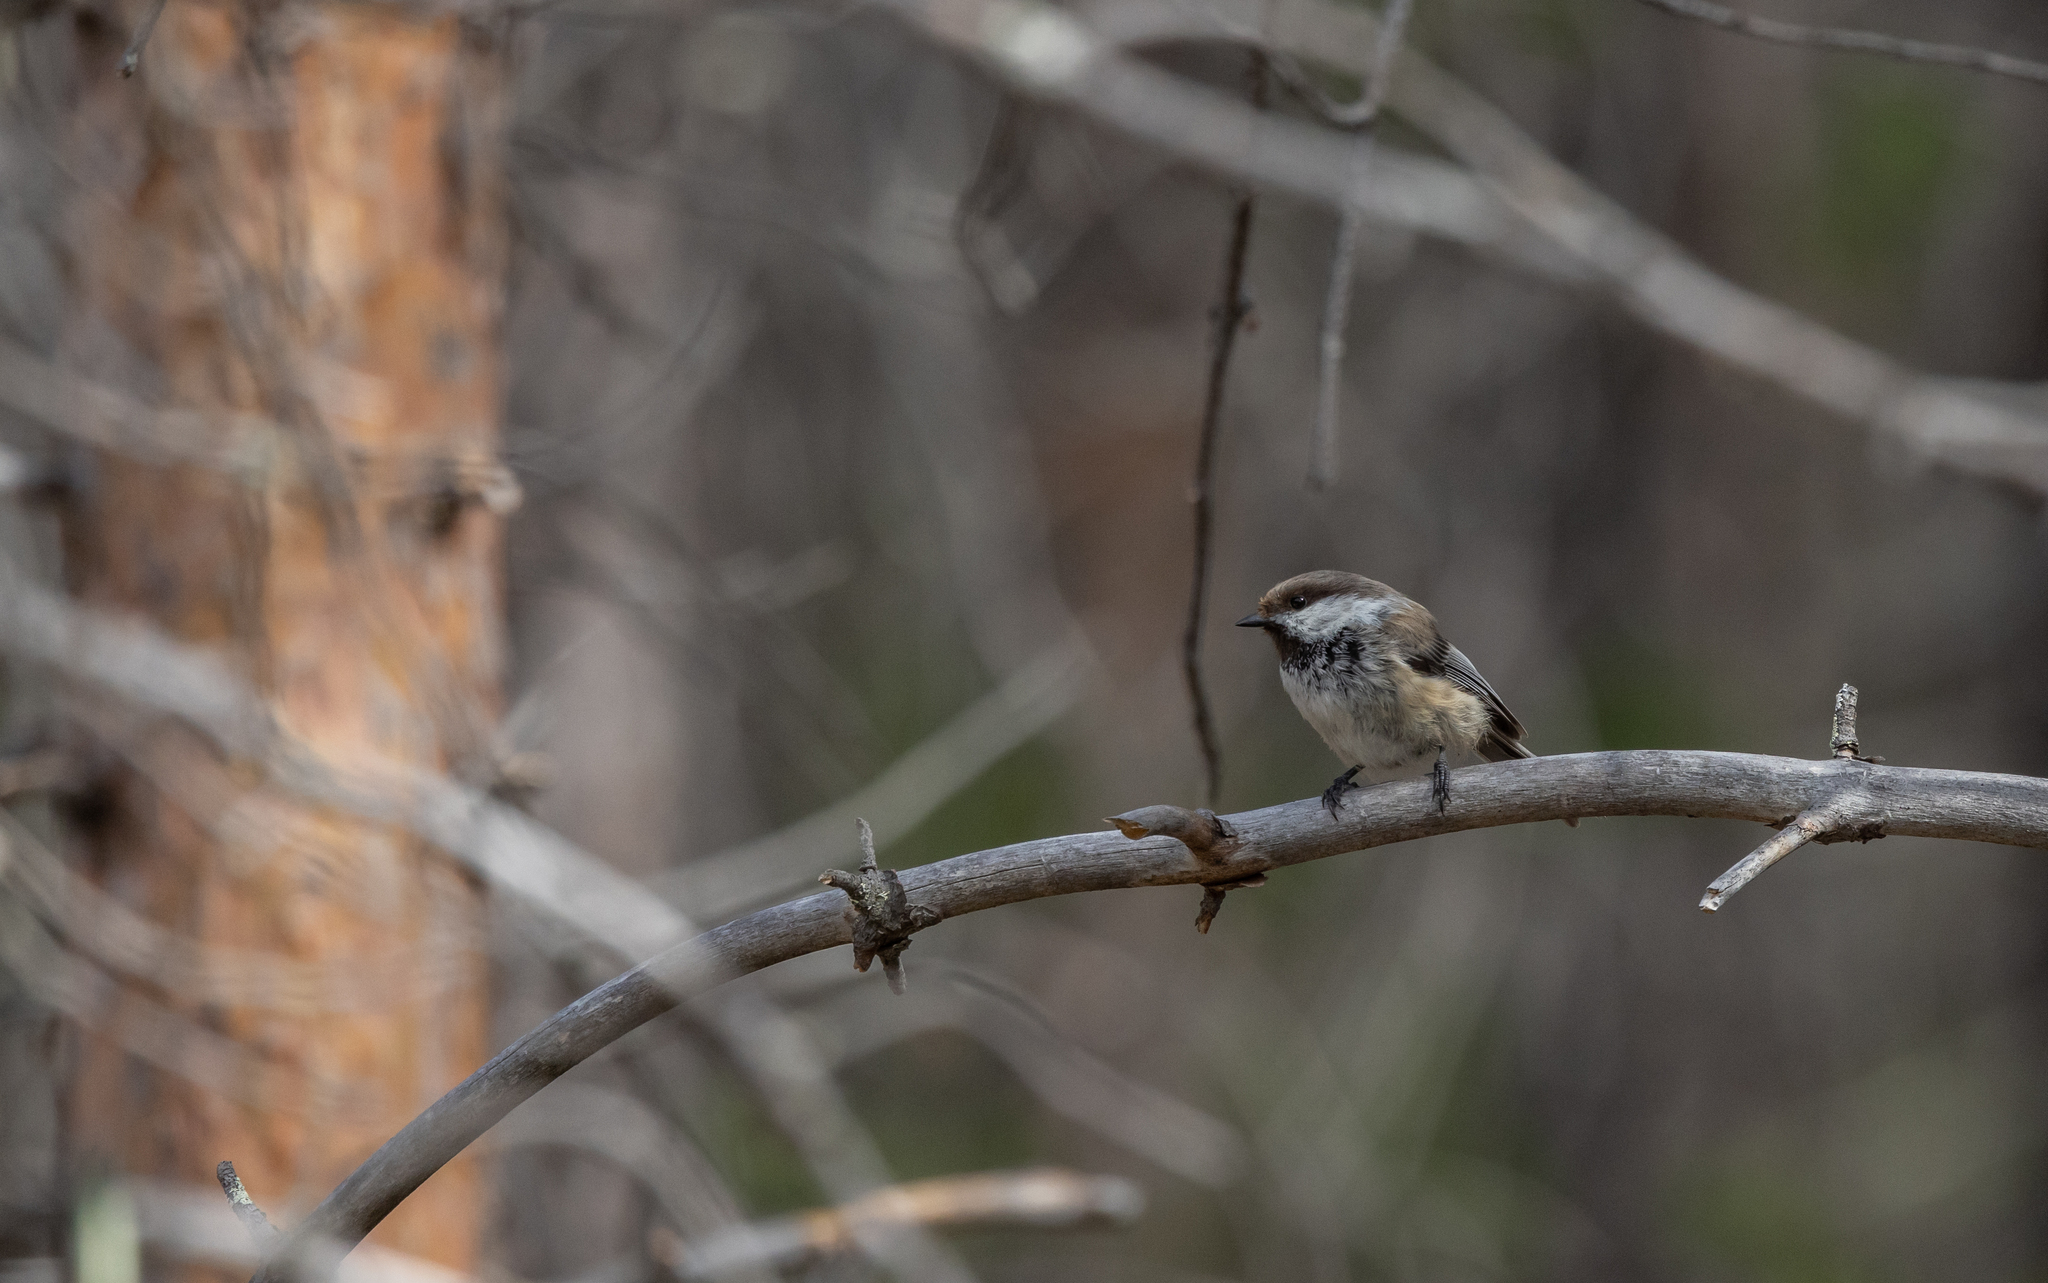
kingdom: Animalia
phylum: Chordata
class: Aves
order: Passeriformes
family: Paridae
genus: Poecile
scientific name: Poecile cinctus
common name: Gray-headed chickadee
